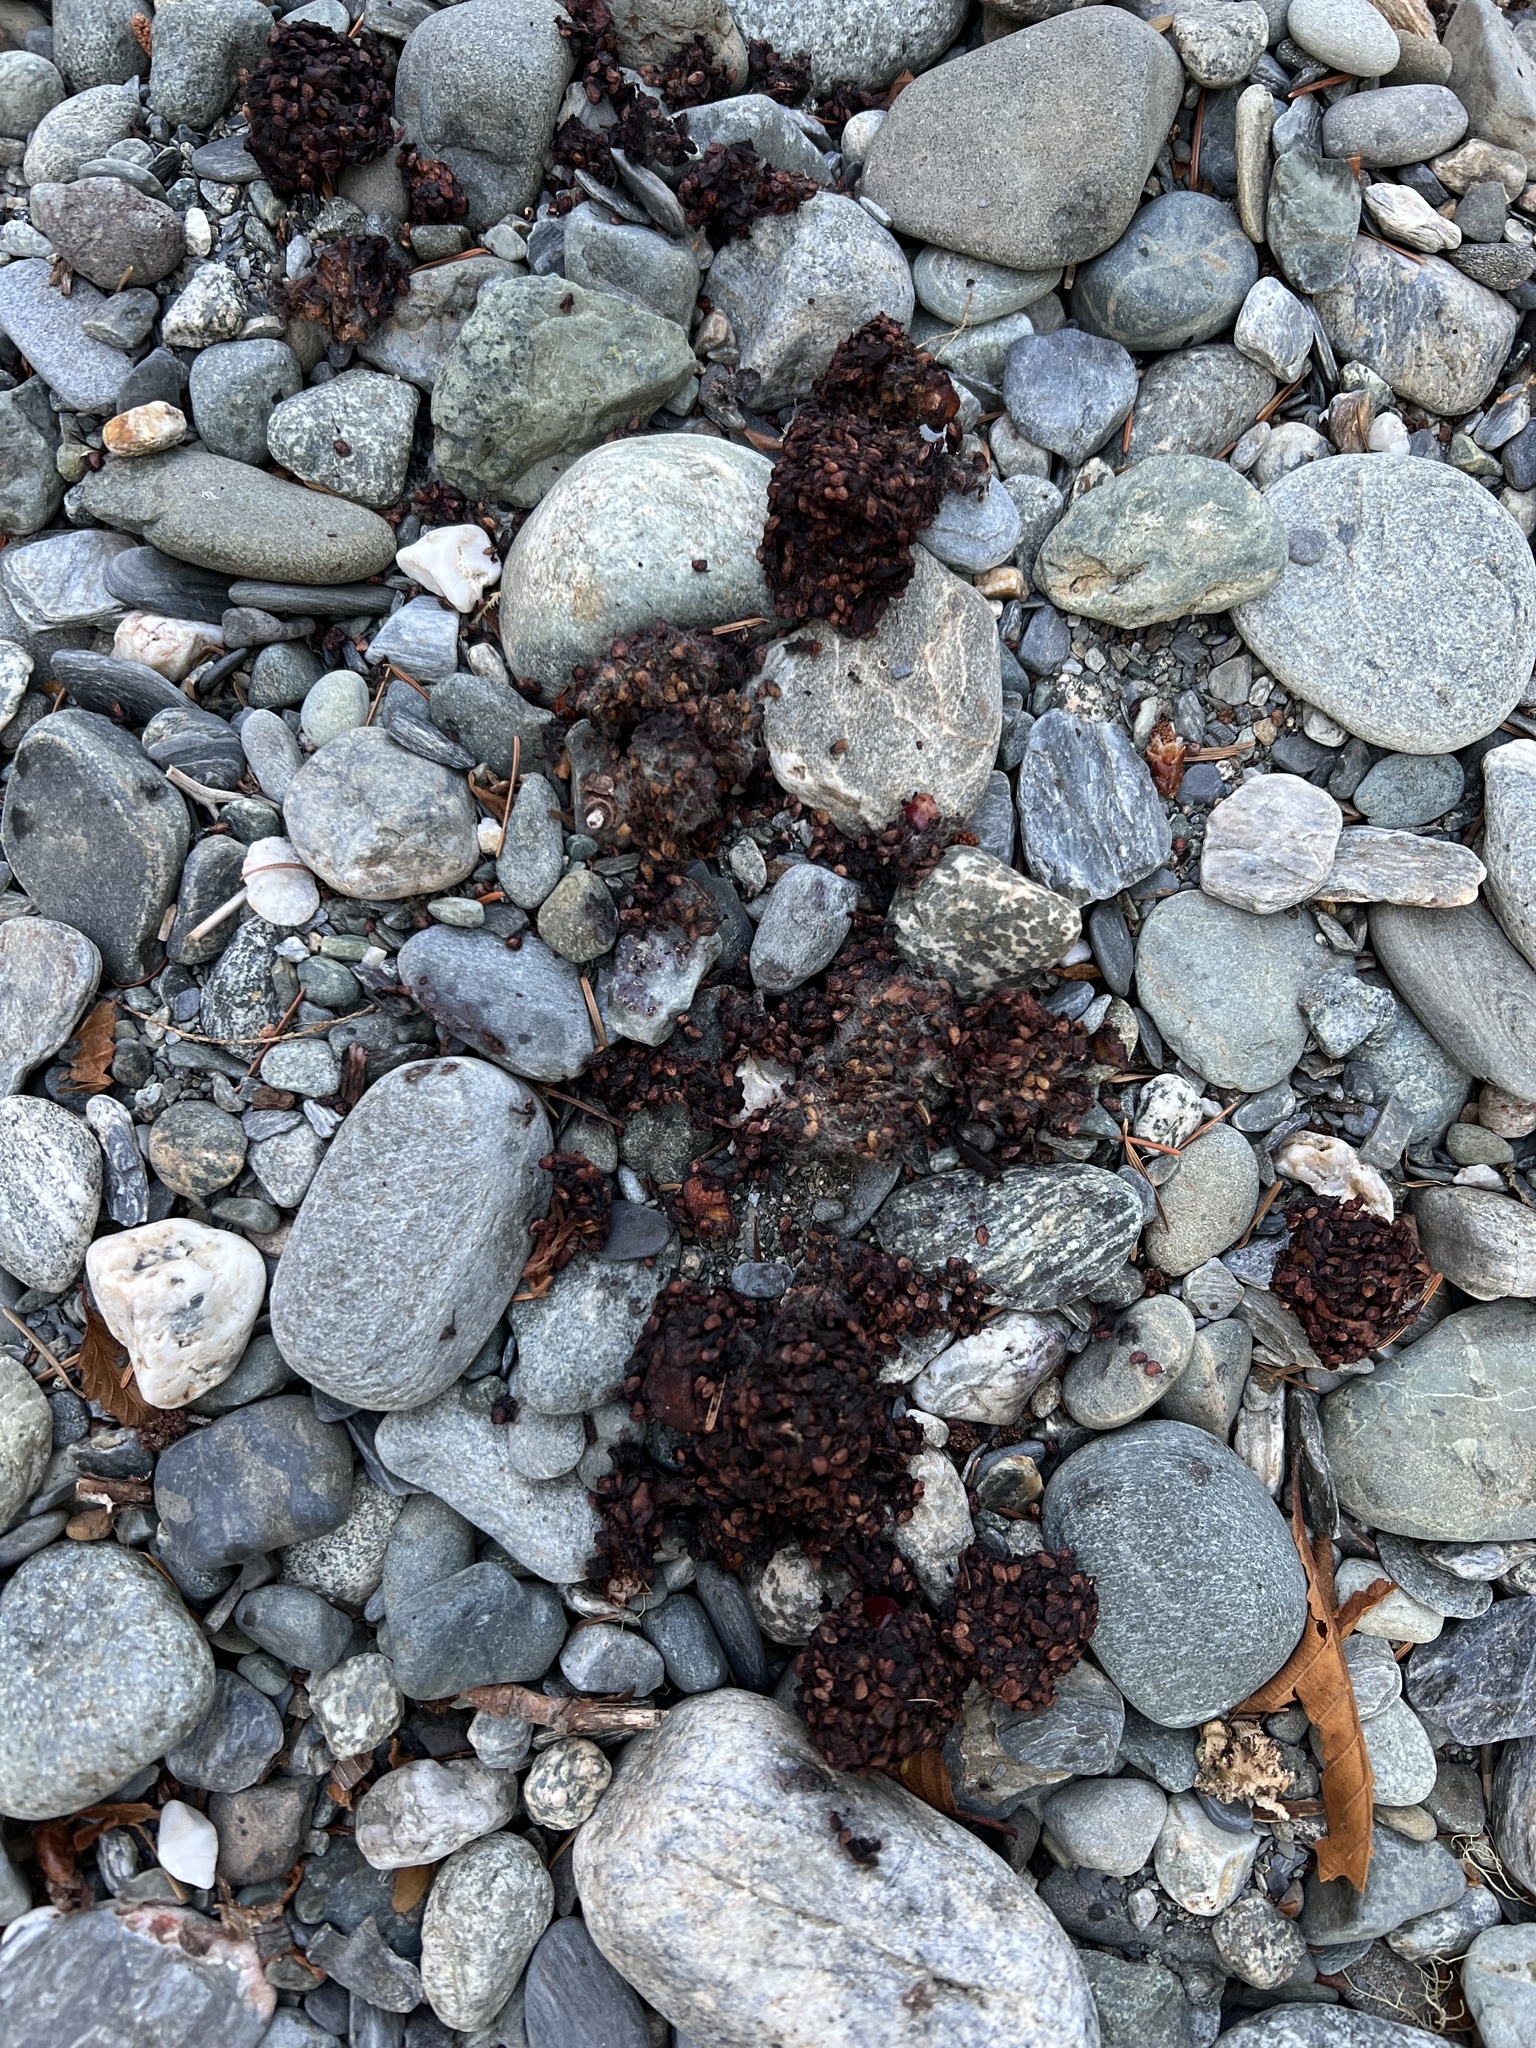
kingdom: Animalia
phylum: Chordata
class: Mammalia
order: Carnivora
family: Ursidae
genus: Ursus
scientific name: Ursus americanus
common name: American black bear
